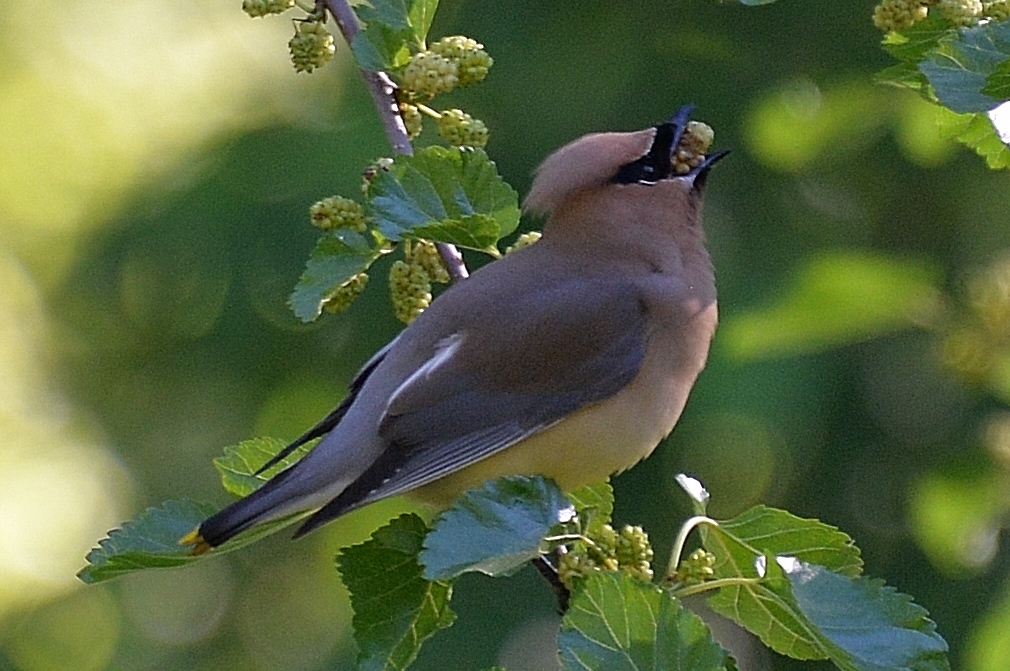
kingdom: Animalia
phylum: Chordata
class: Aves
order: Passeriformes
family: Bombycillidae
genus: Bombycilla
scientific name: Bombycilla cedrorum
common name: Cedar waxwing
